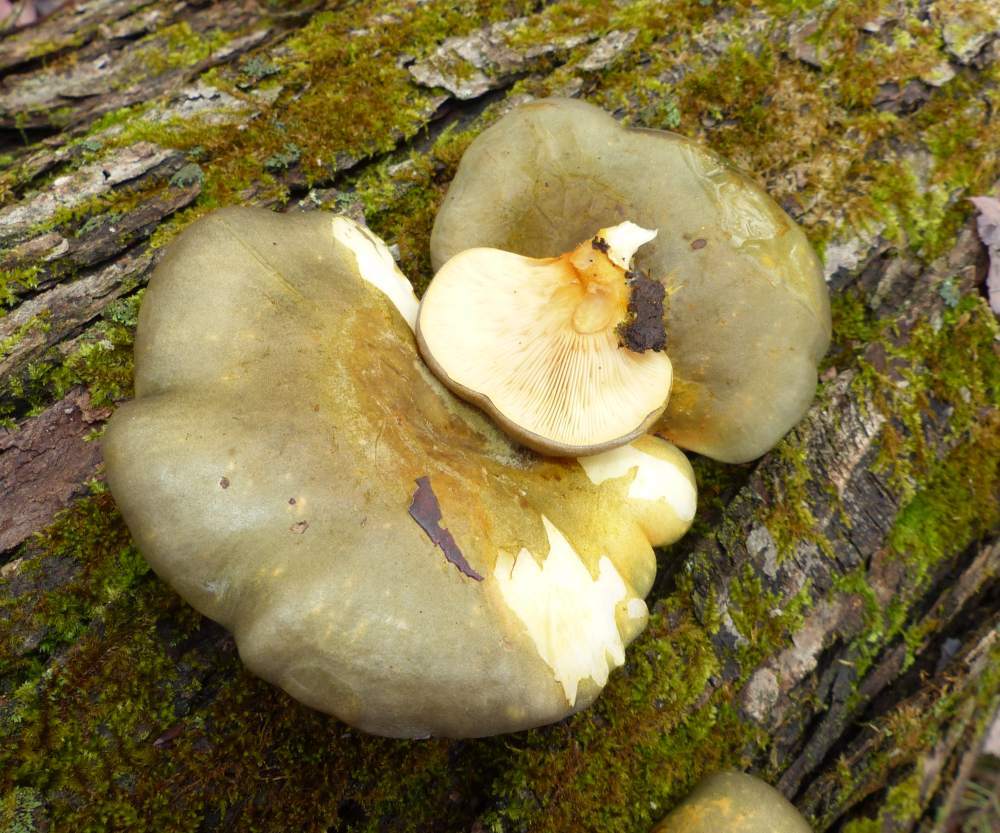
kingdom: Fungi
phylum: Basidiomycota
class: Agaricomycetes
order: Agaricales
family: Sarcomyxaceae
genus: Sarcomyxa
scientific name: Sarcomyxa serotina
